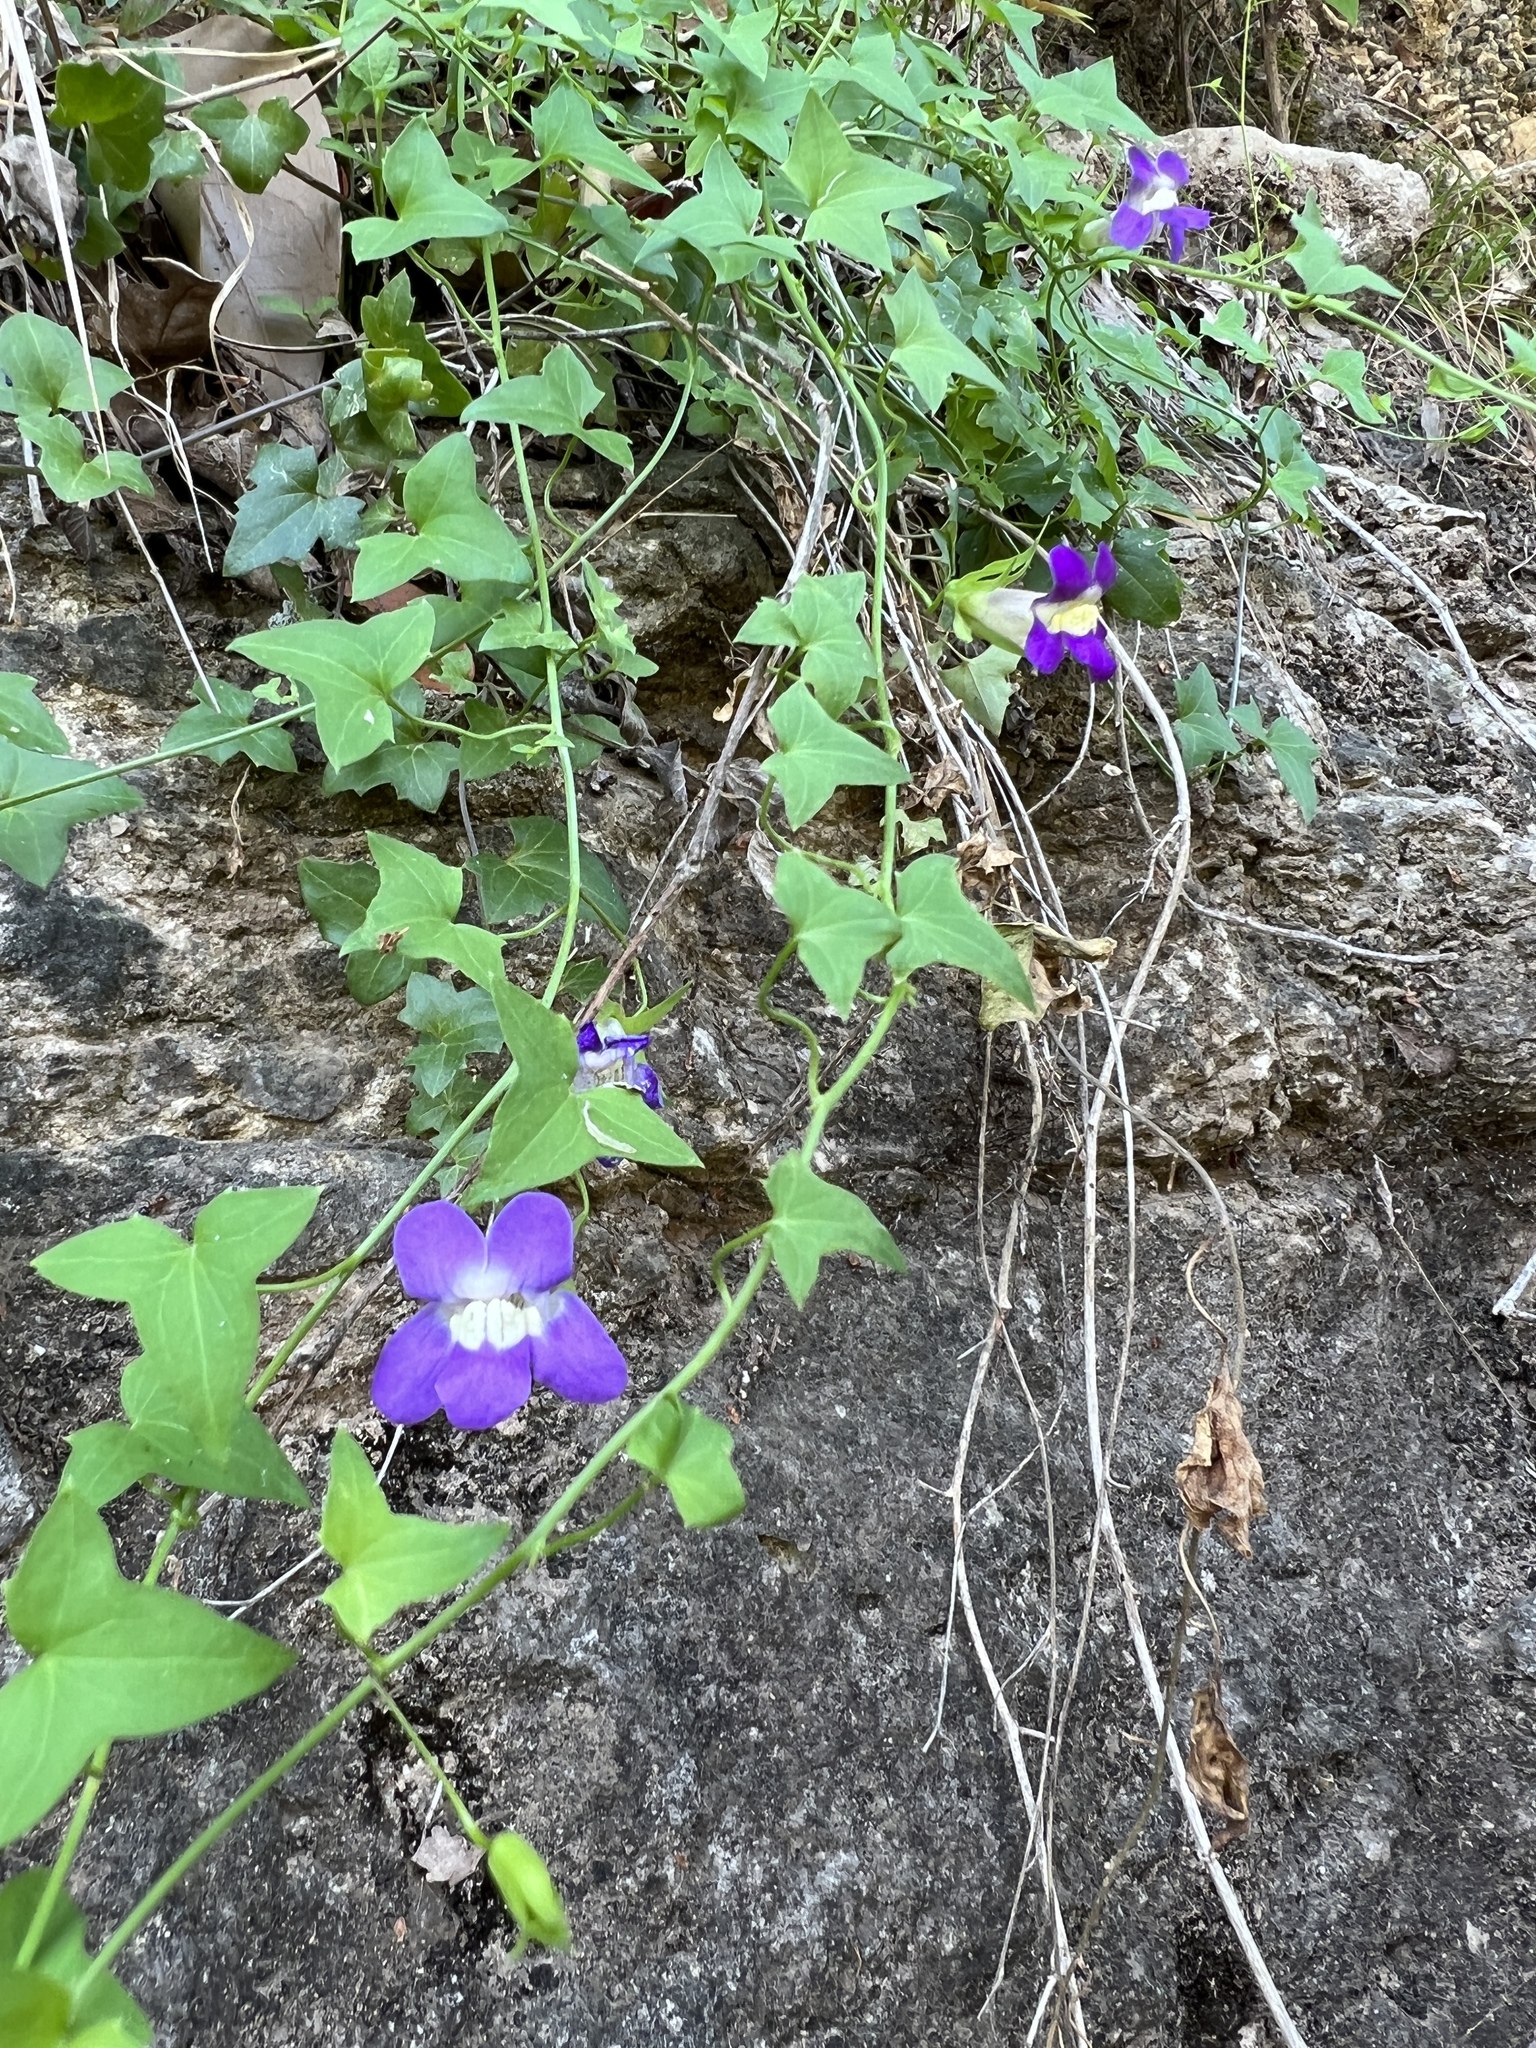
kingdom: Plantae
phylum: Tracheophyta
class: Magnoliopsida
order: Lamiales
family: Plantaginaceae
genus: Maurandella
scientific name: Maurandella antirrhiniflora
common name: Violet twining-snapdragon
